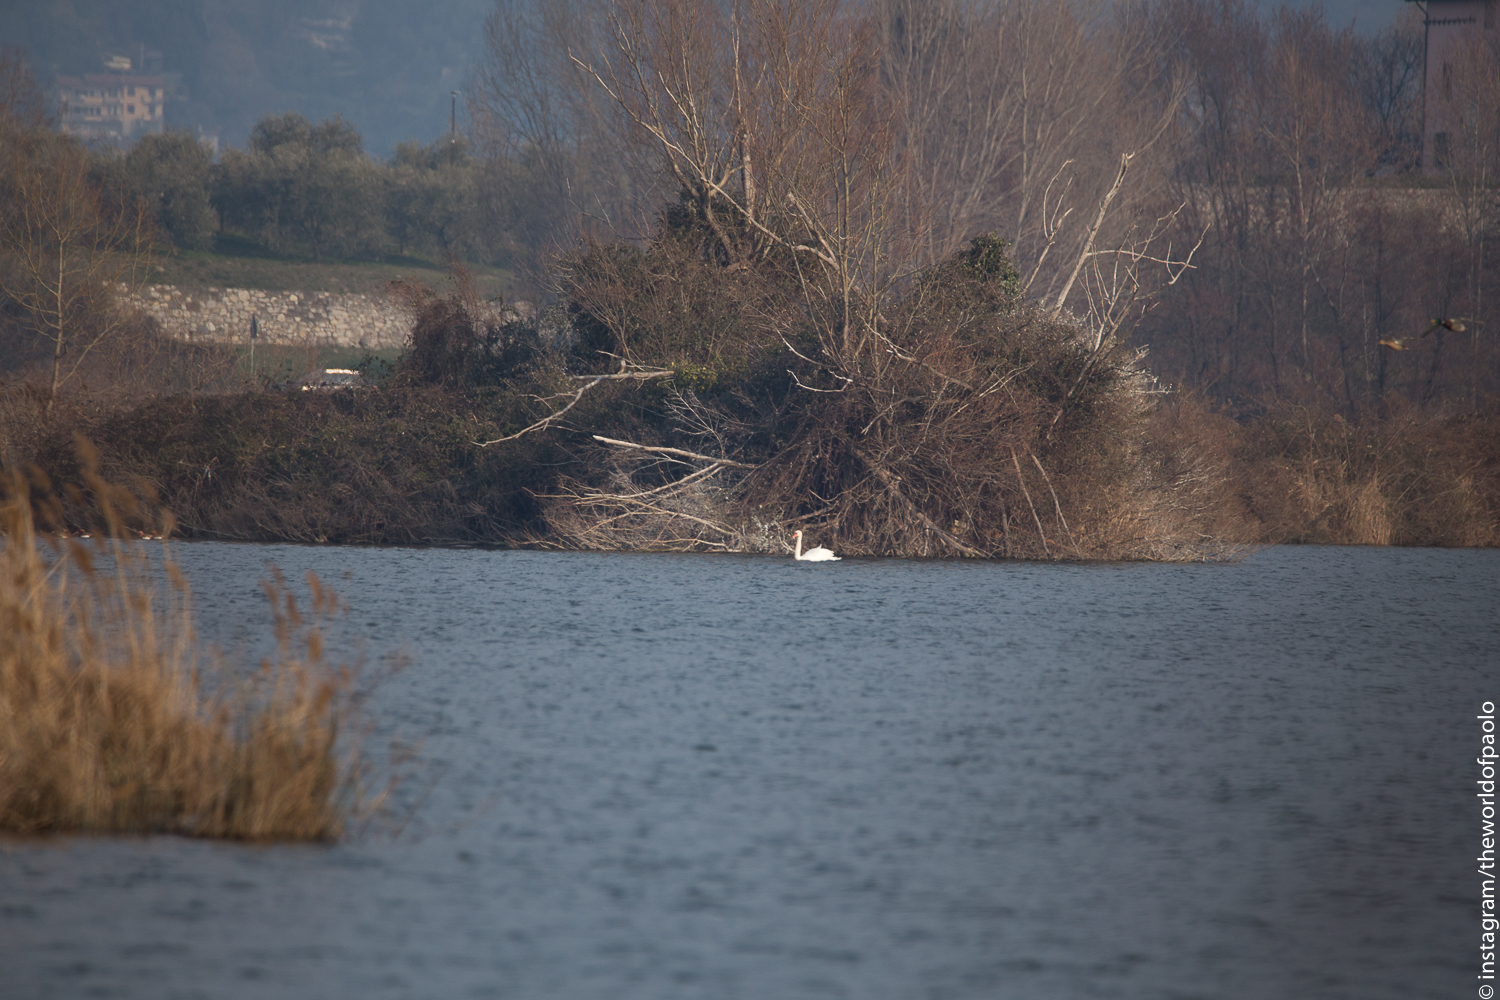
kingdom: Animalia
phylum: Chordata
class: Aves
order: Anseriformes
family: Anatidae
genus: Cygnus
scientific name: Cygnus olor
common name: Mute swan
